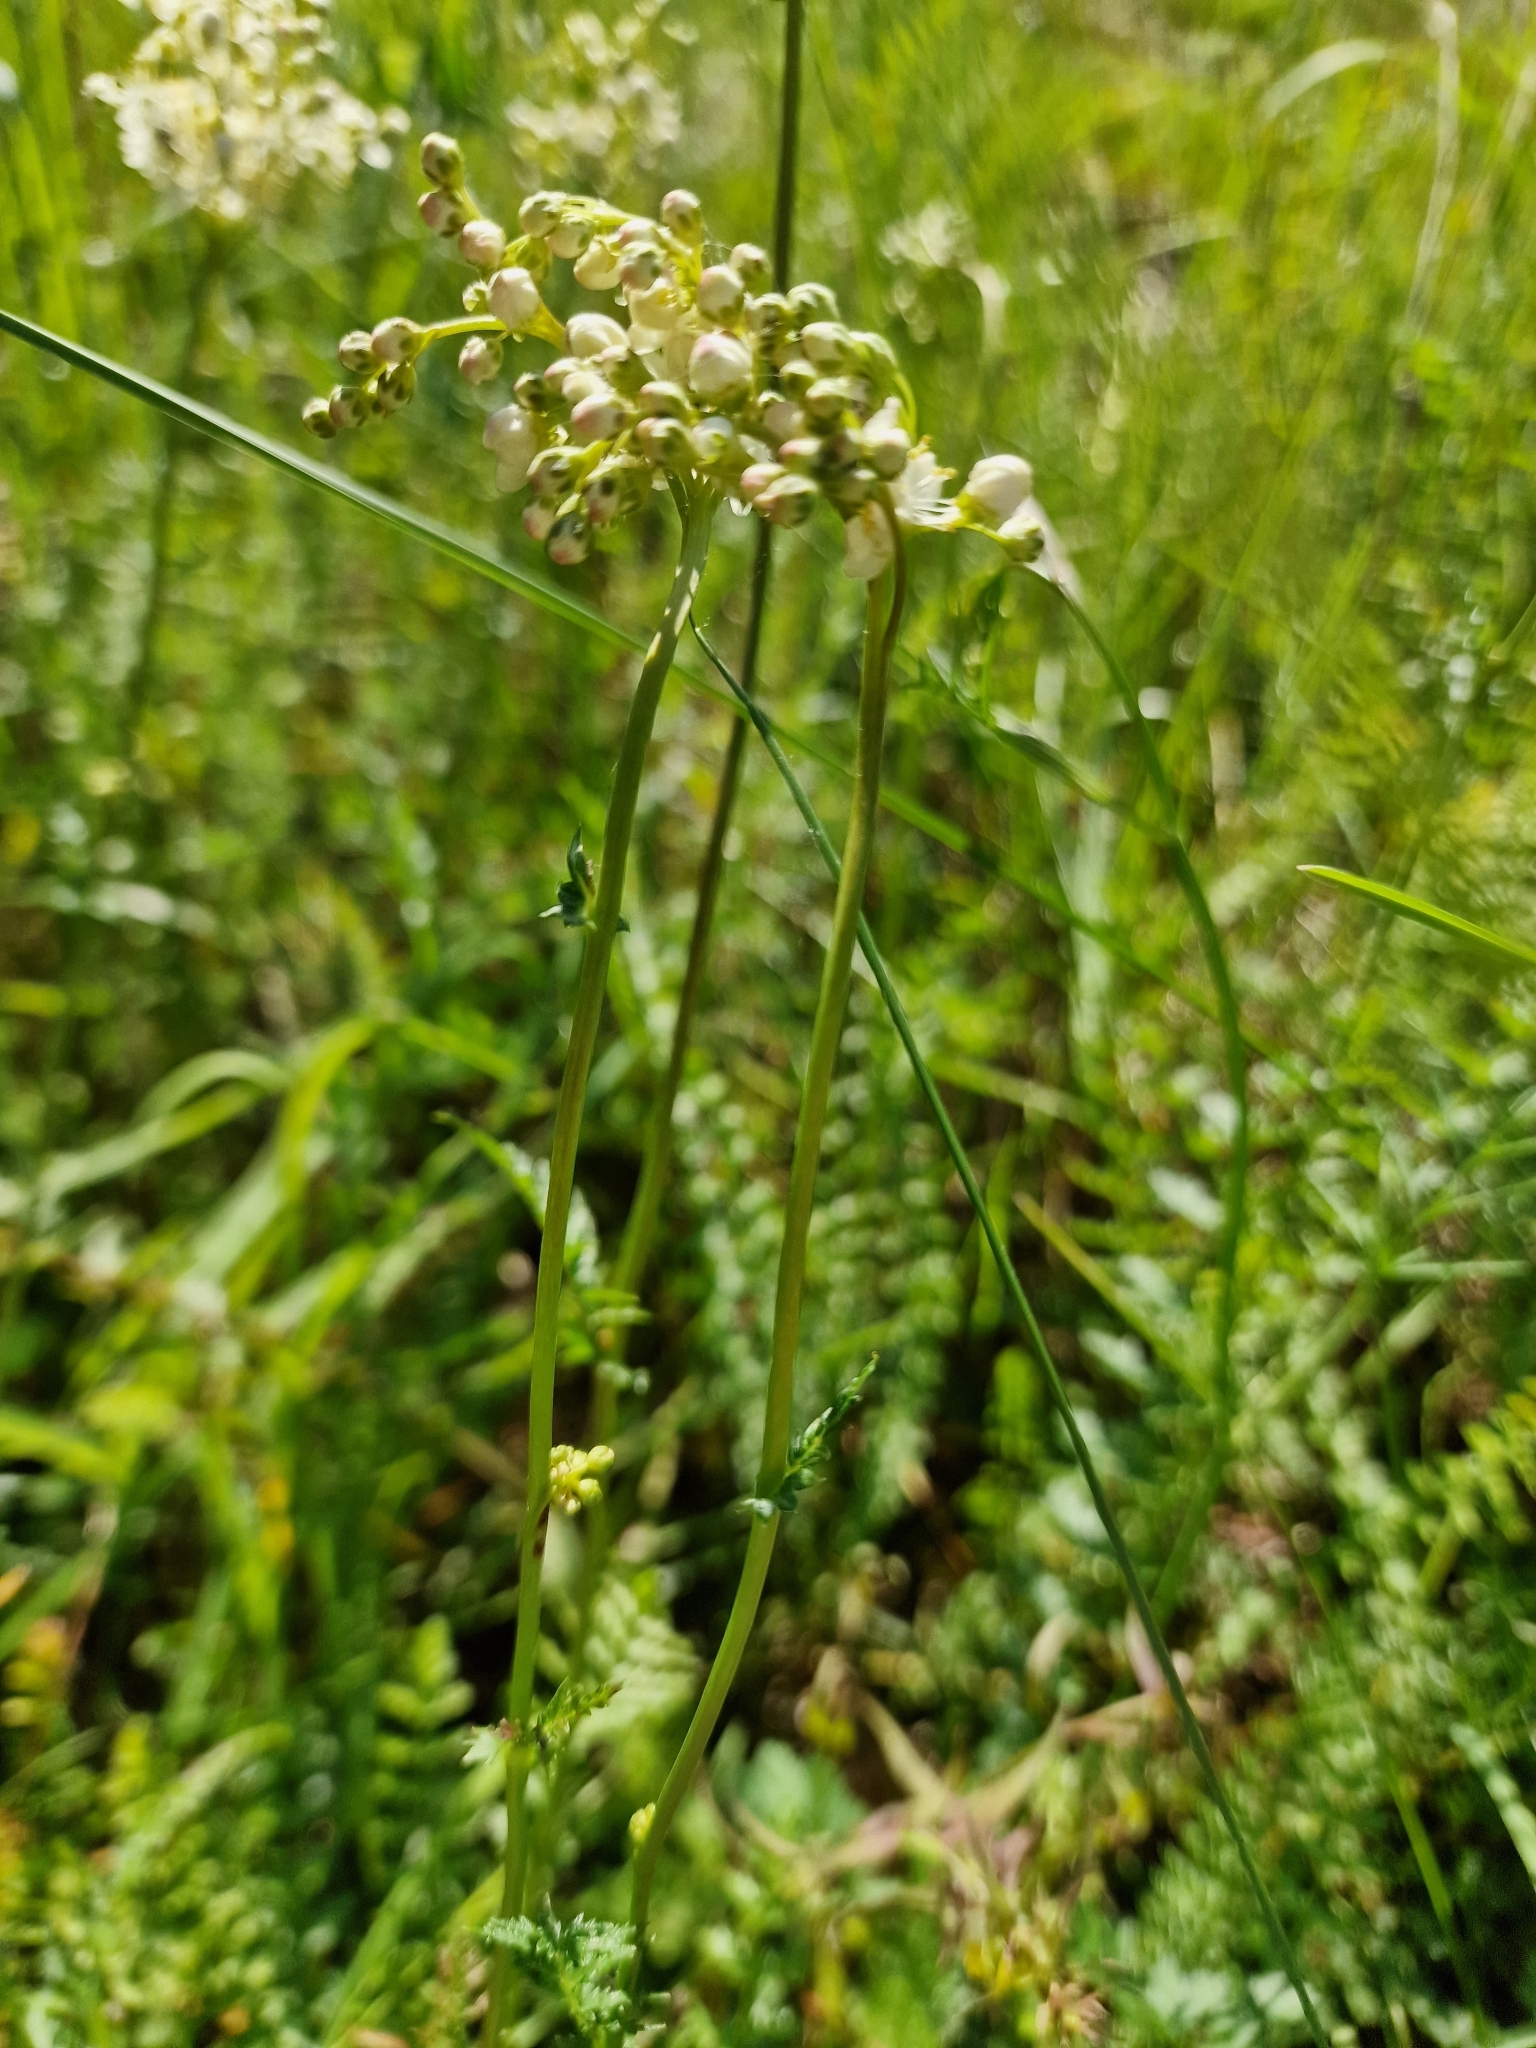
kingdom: Plantae
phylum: Tracheophyta
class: Magnoliopsida
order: Rosales
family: Rosaceae
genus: Filipendula
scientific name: Filipendula vulgaris
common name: Dropwort
